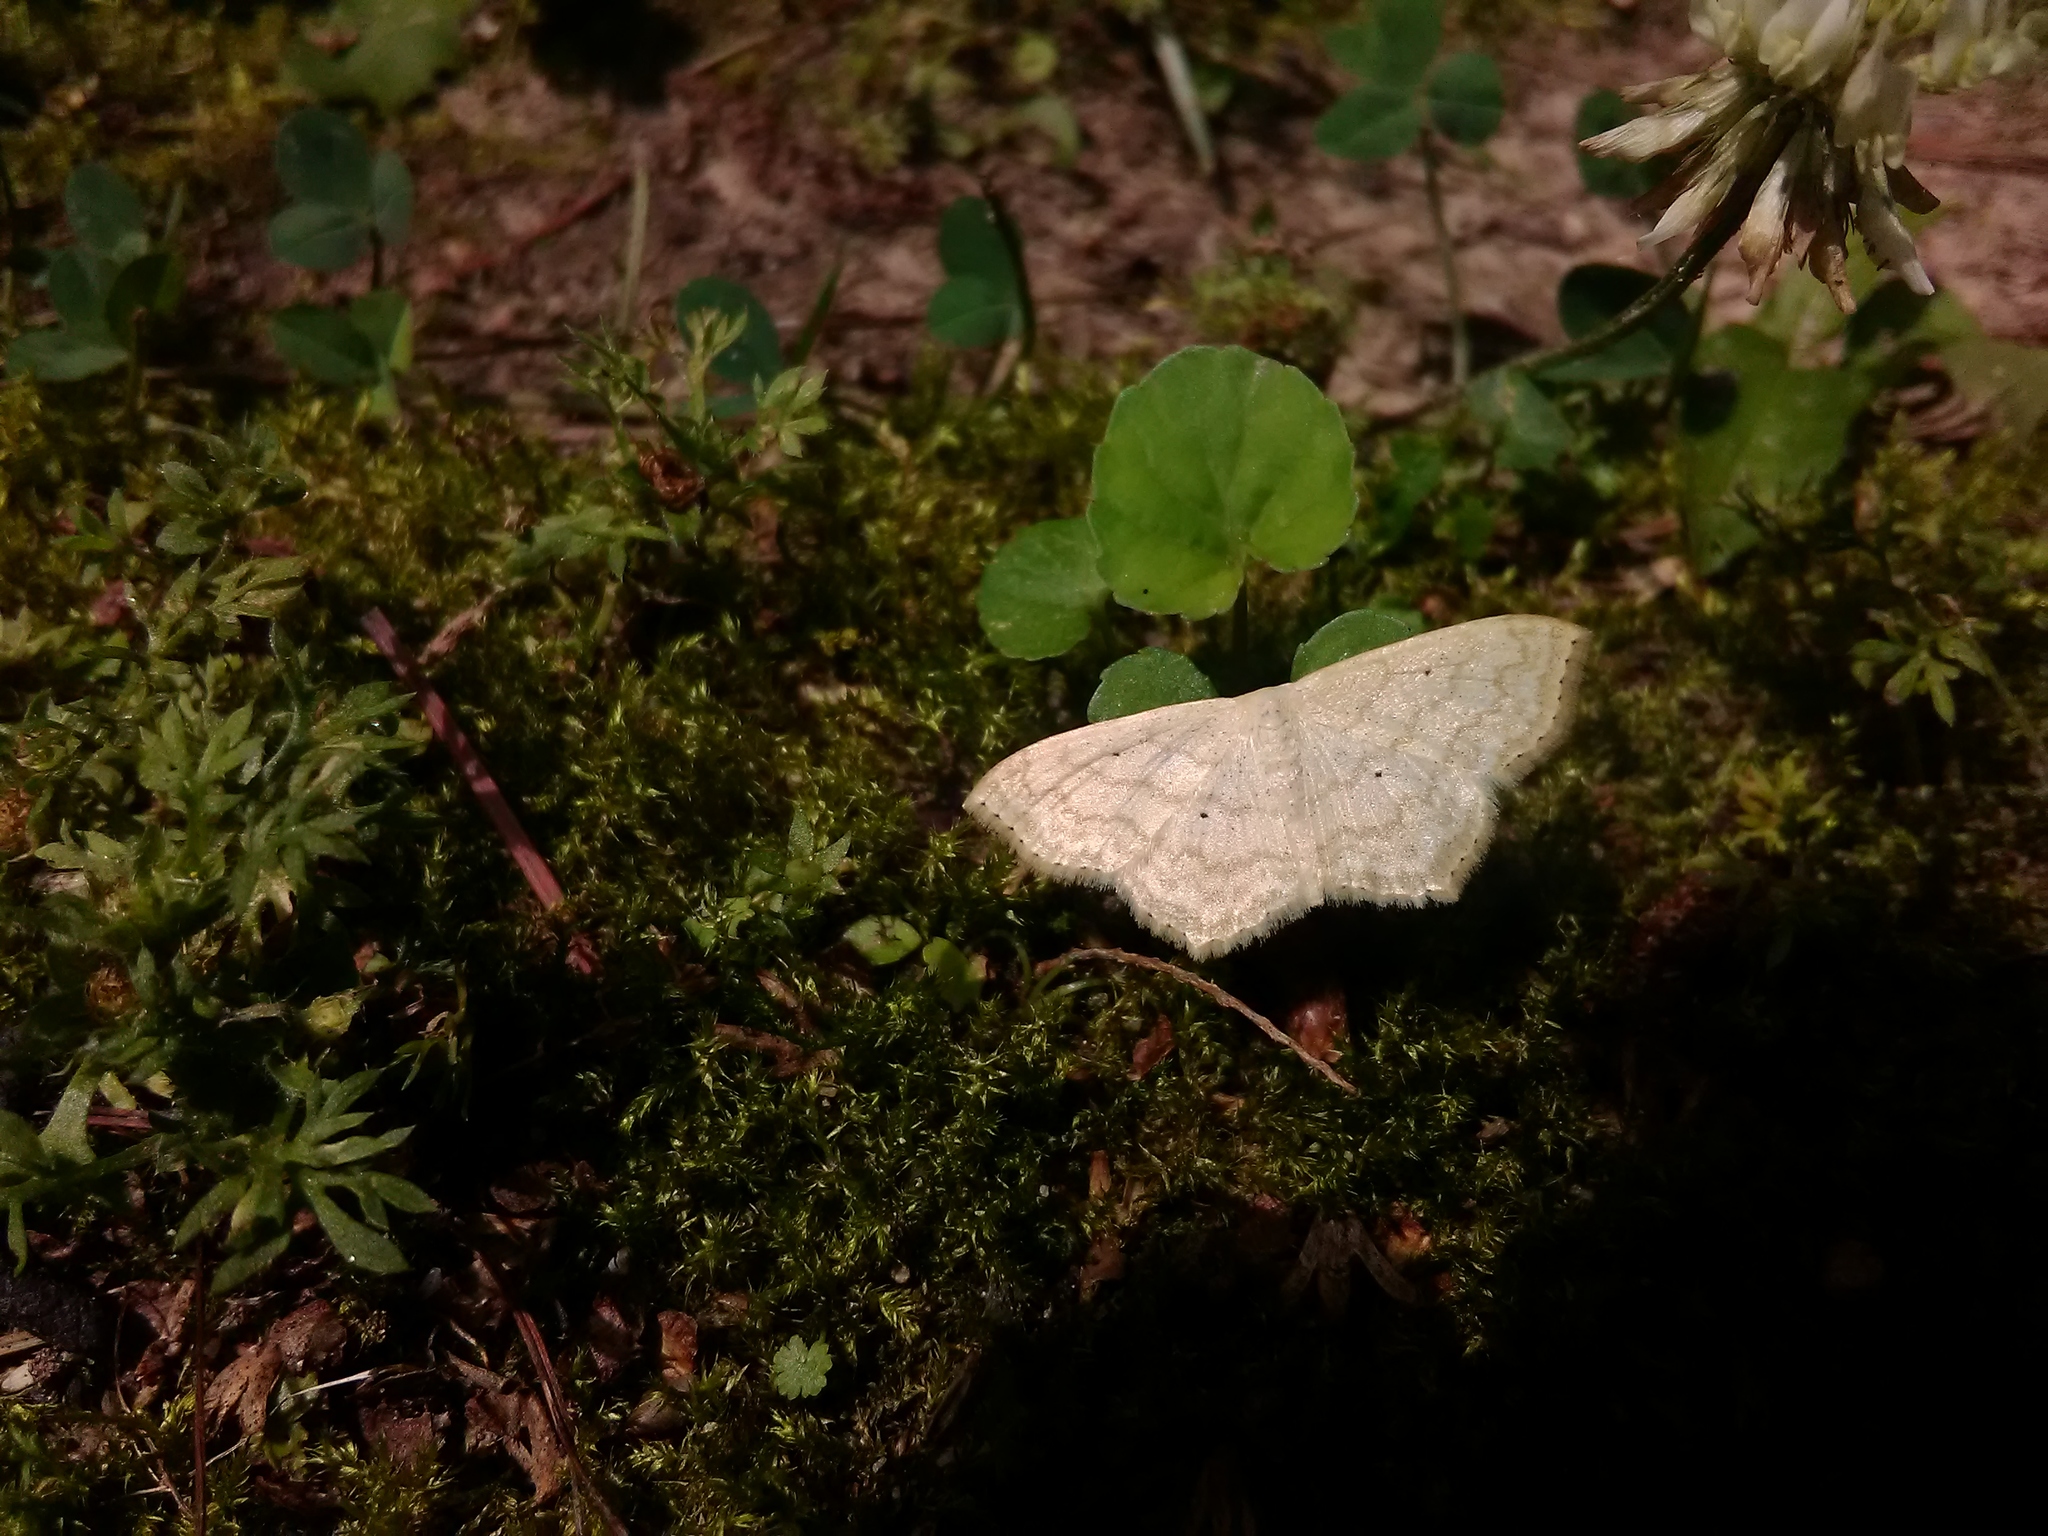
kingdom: Animalia
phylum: Arthropoda
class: Insecta
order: Lepidoptera
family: Geometridae
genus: Scopula
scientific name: Scopula limboundata
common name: Large lace border
